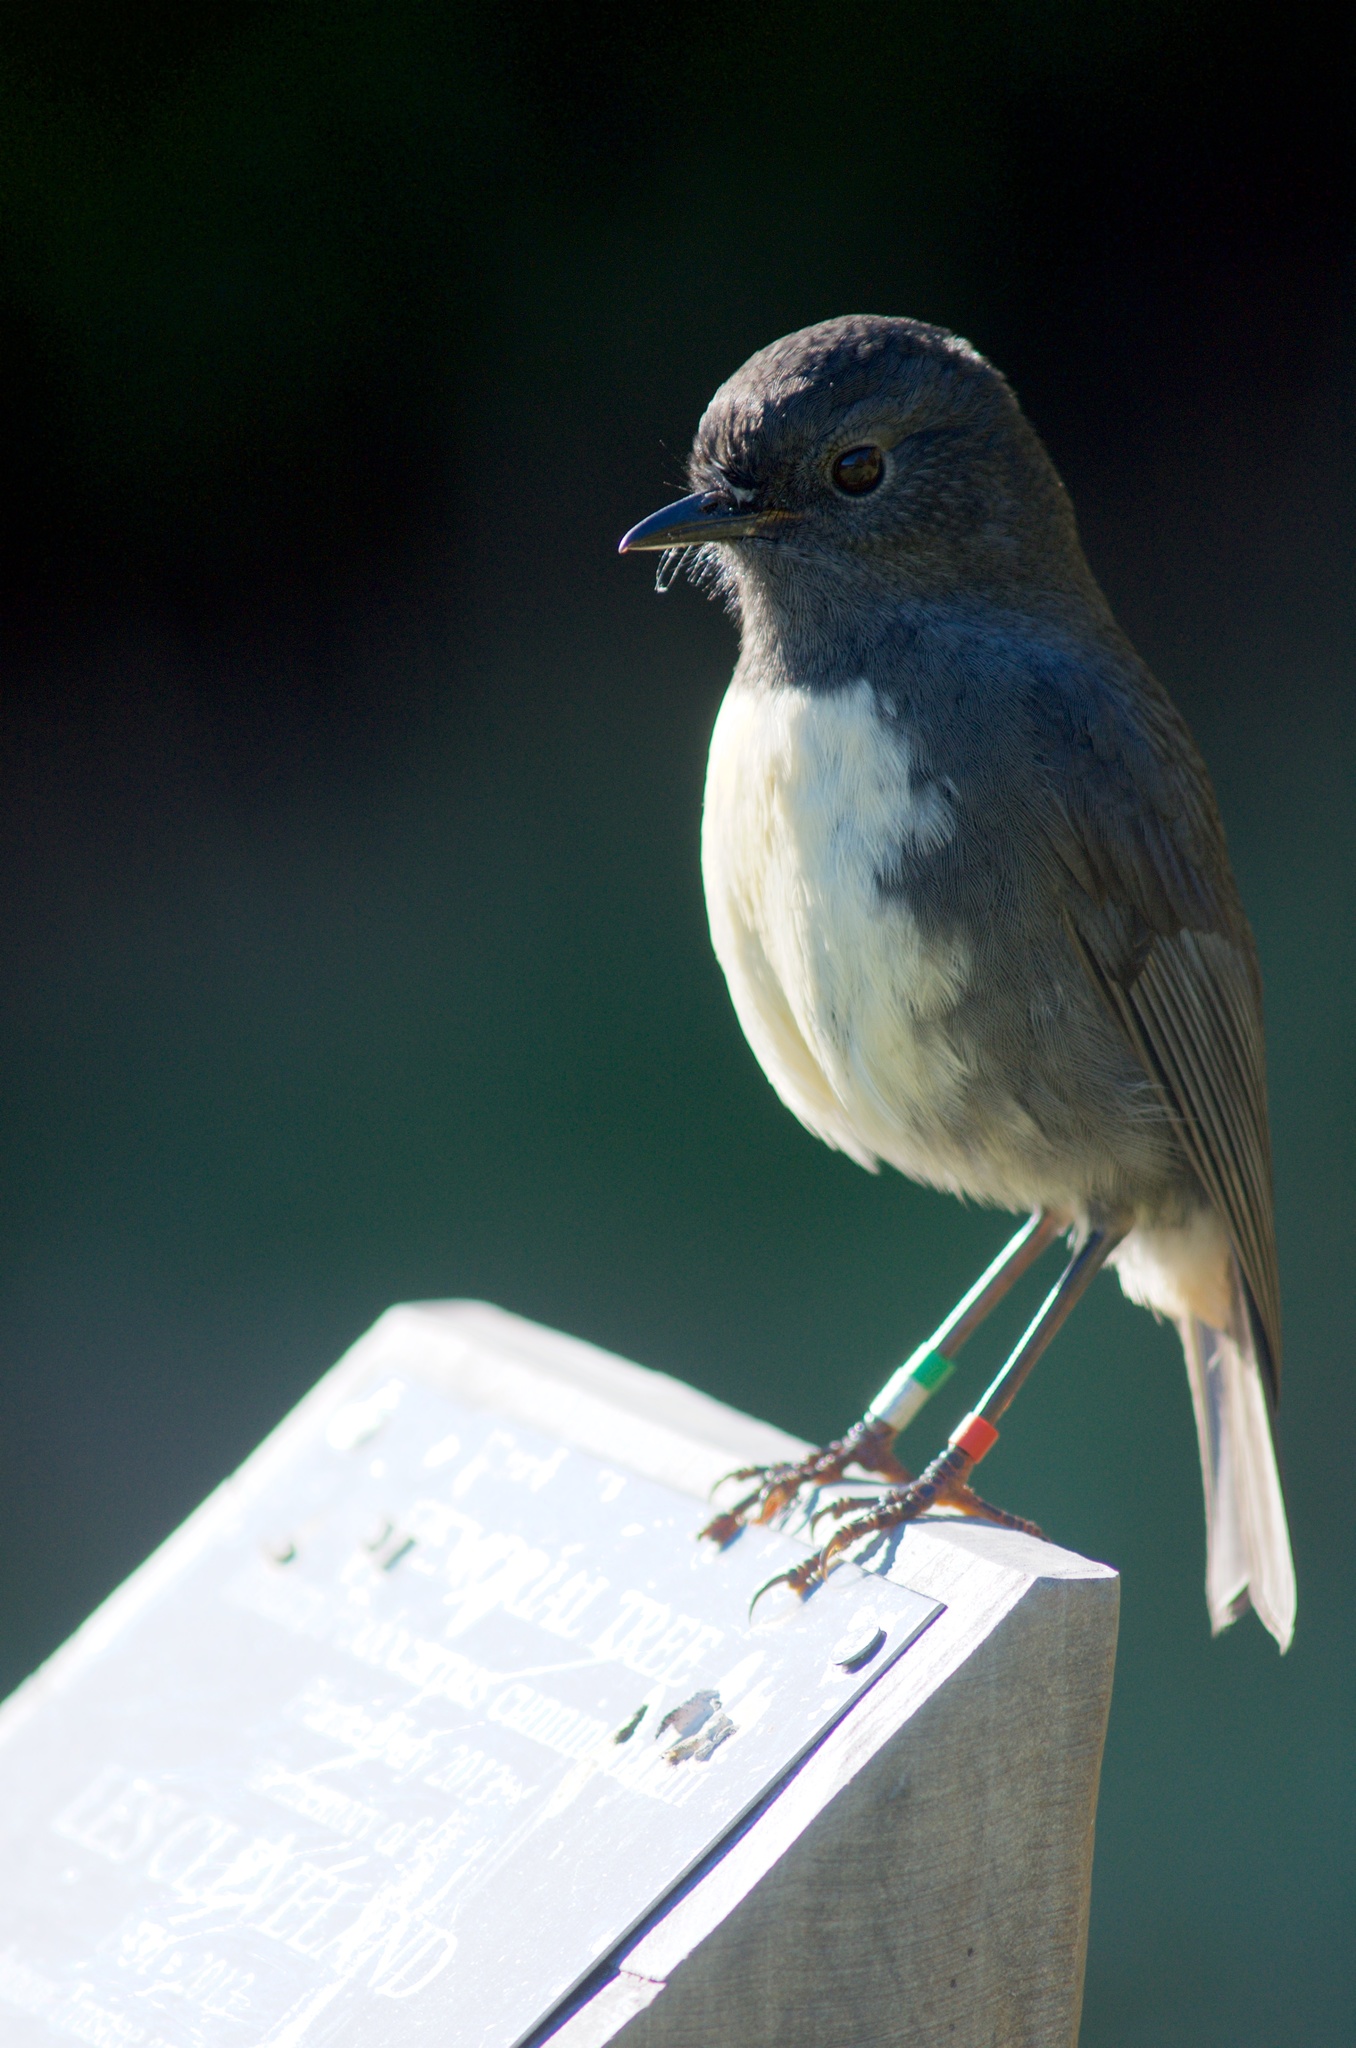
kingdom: Animalia
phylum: Chordata
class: Aves
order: Passeriformes
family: Petroicidae
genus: Petroica
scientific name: Petroica australis
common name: New zealand robin
